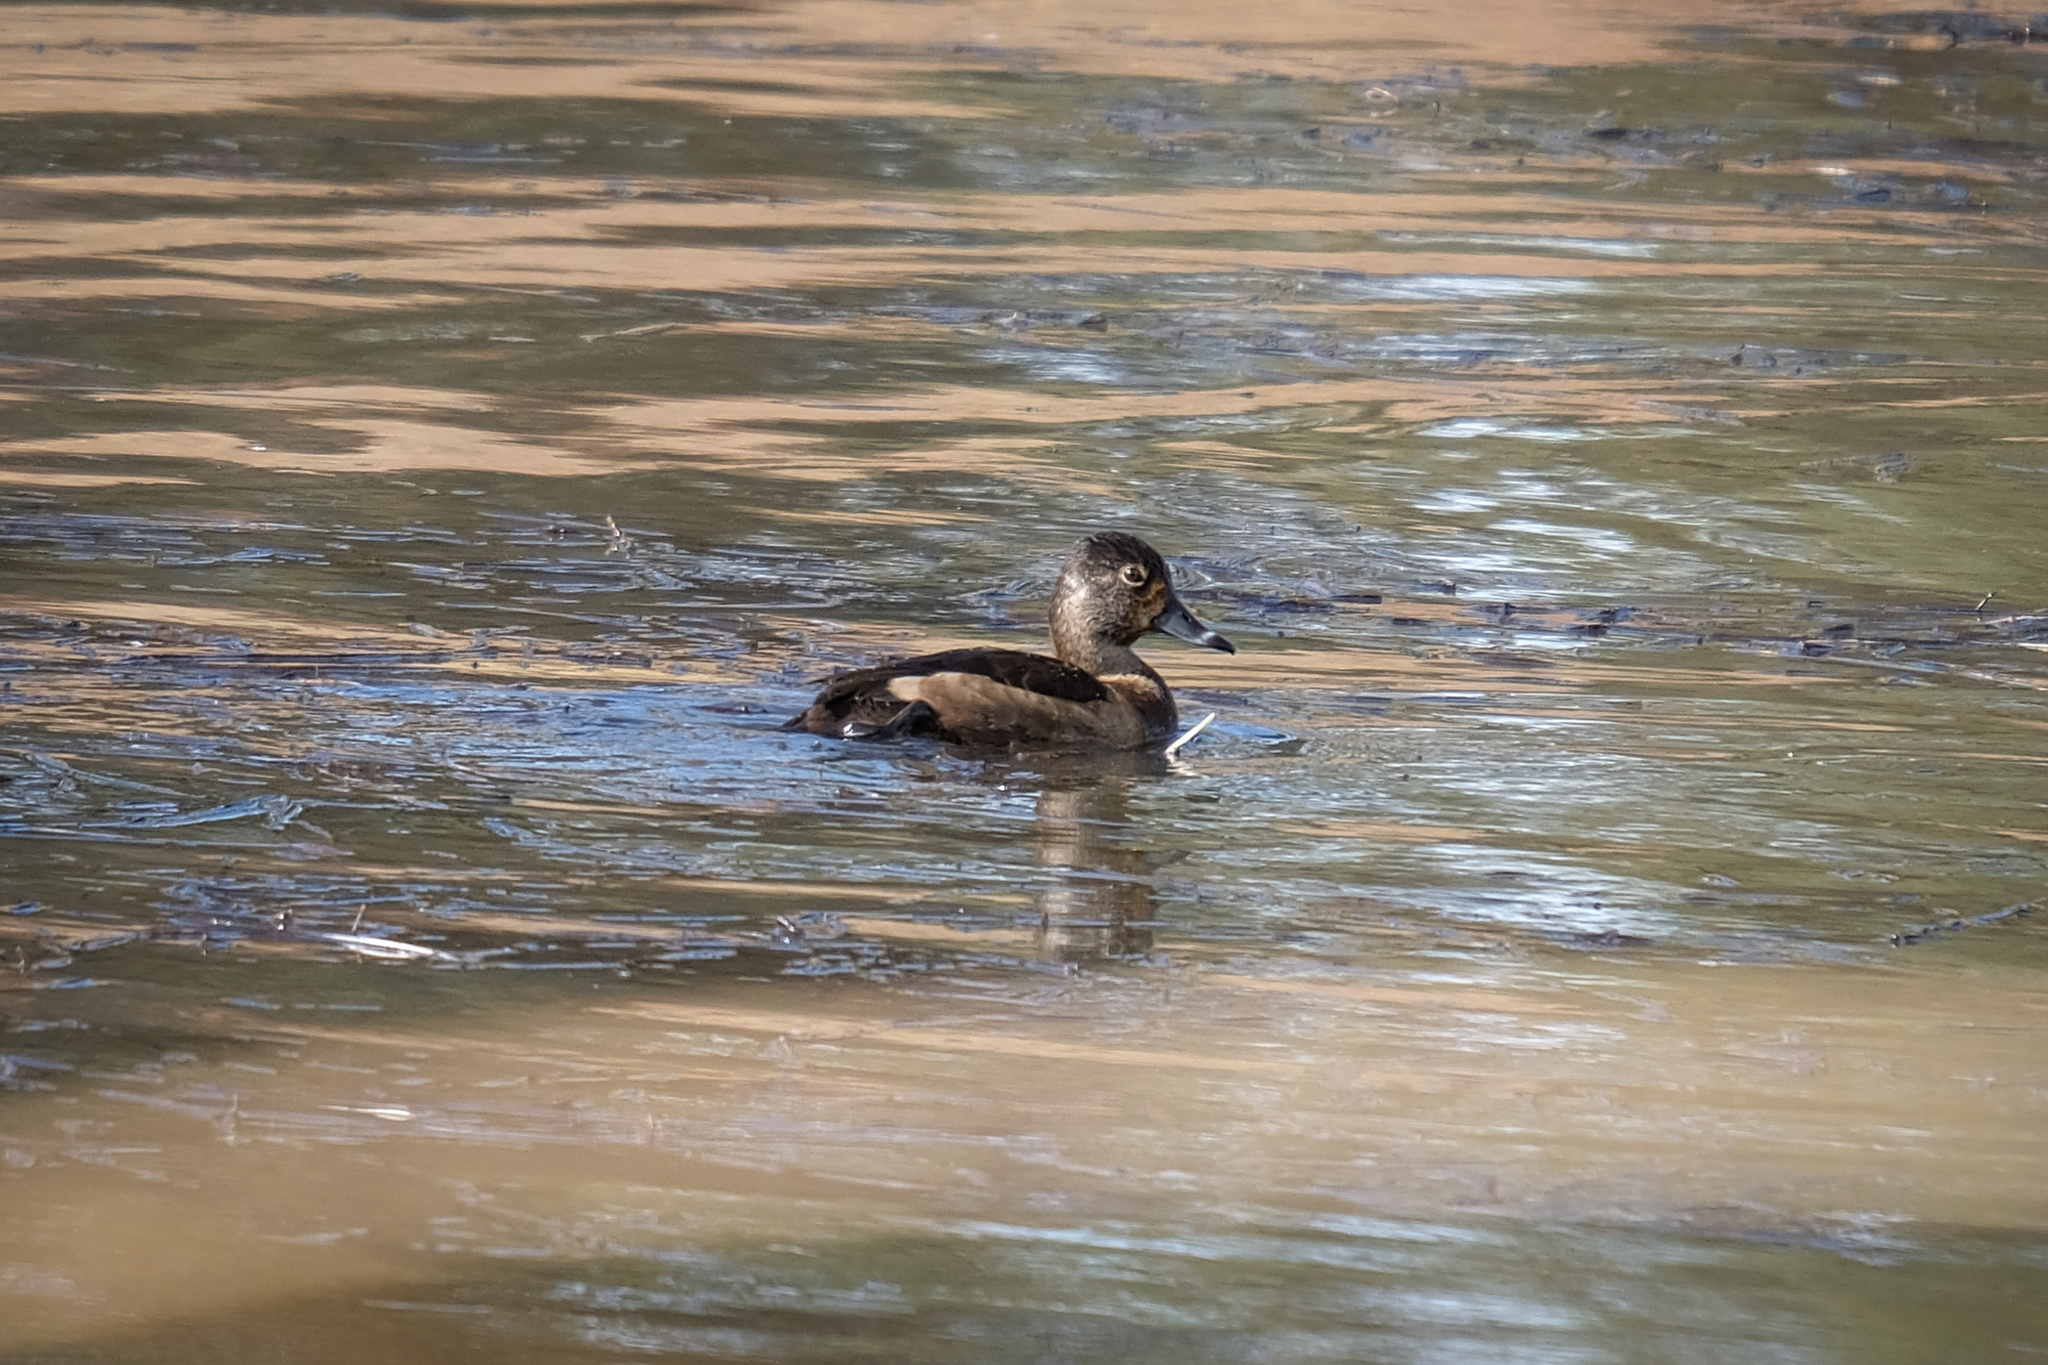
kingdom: Animalia
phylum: Chordata
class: Aves
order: Anseriformes
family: Anatidae
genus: Aythya
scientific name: Aythya collaris
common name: Ring-necked duck
